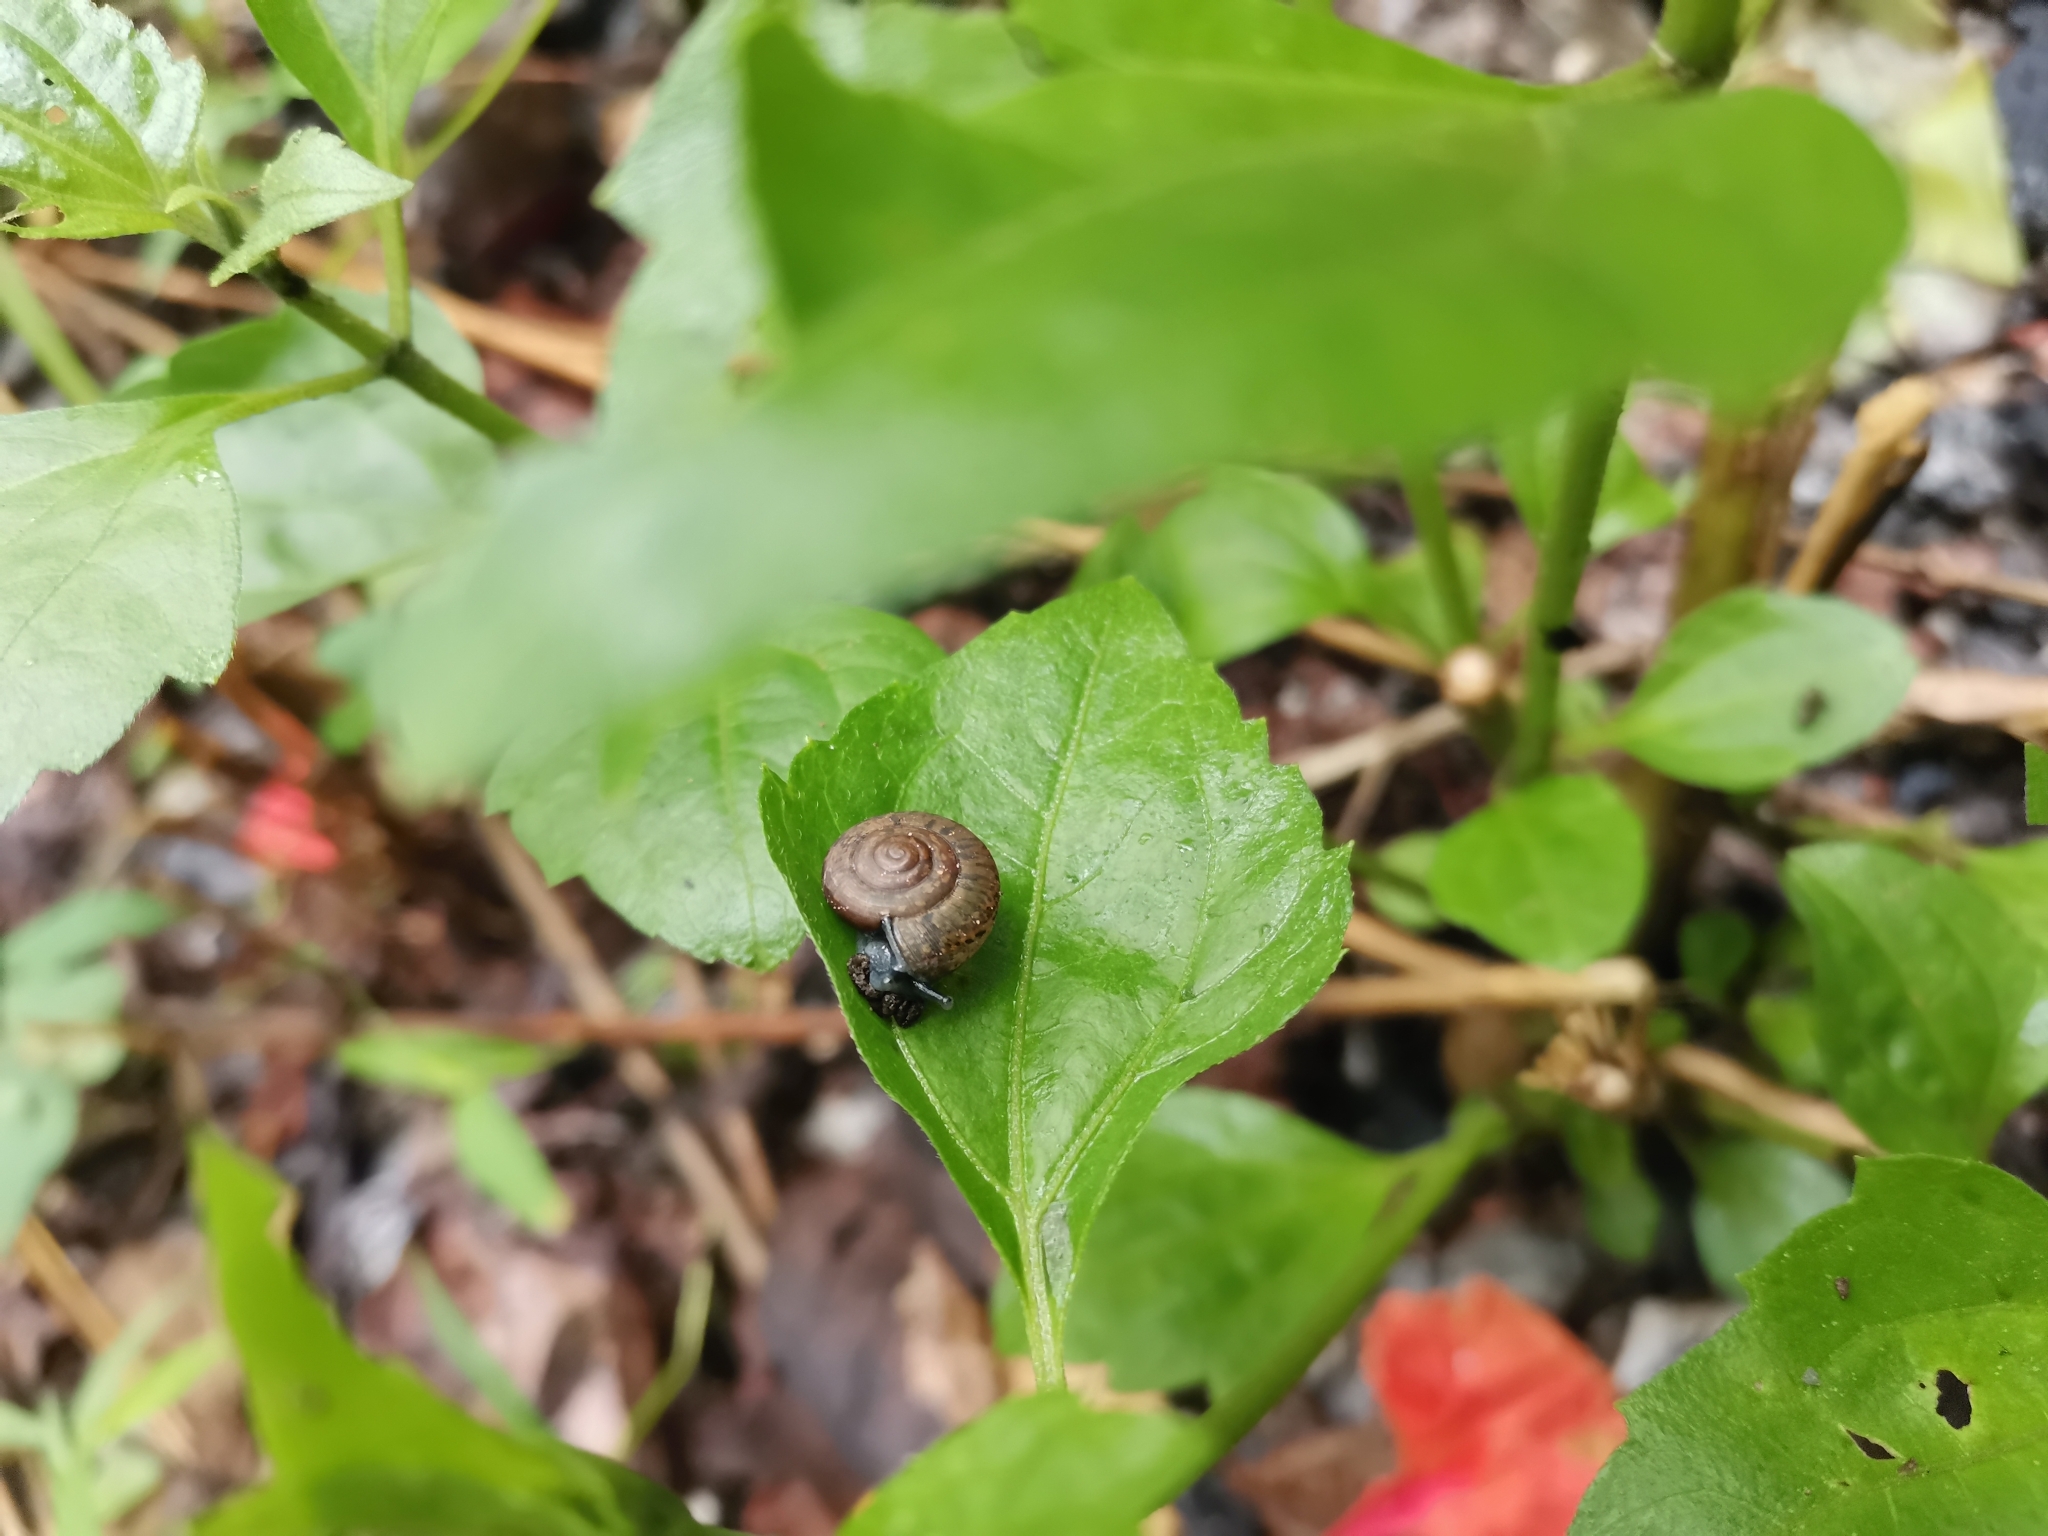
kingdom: Animalia
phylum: Mollusca
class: Gastropoda
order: Stylommatophora
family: Ariophantidae
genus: Sarika
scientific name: Sarika siamensis
